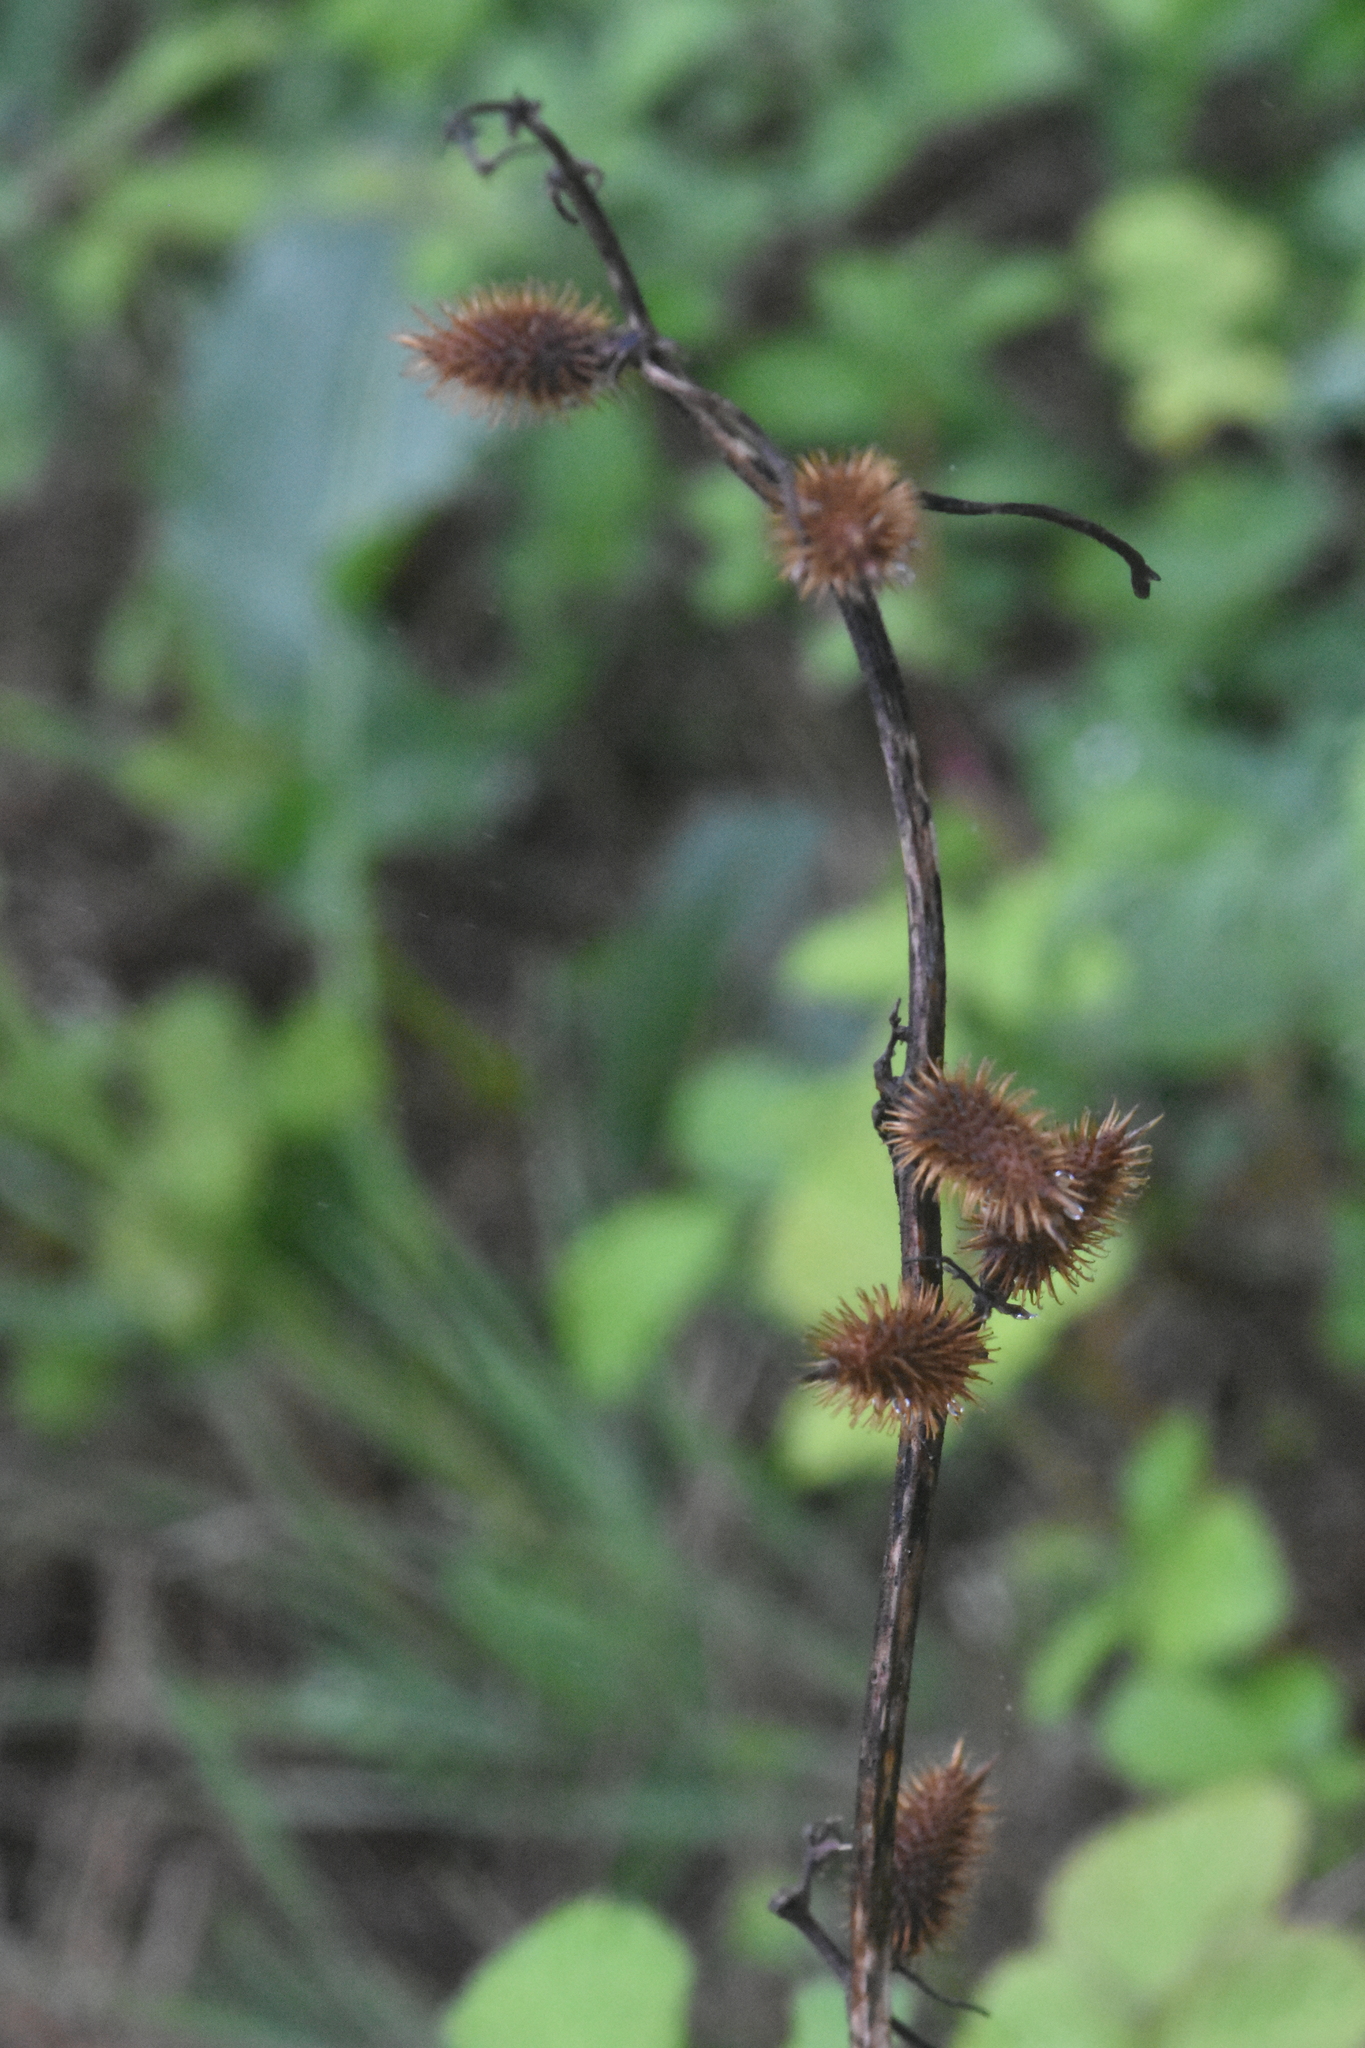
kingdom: Plantae
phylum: Tracheophyta
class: Magnoliopsida
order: Asterales
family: Asteraceae
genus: Xanthium
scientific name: Xanthium orientale
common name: Californian burr
